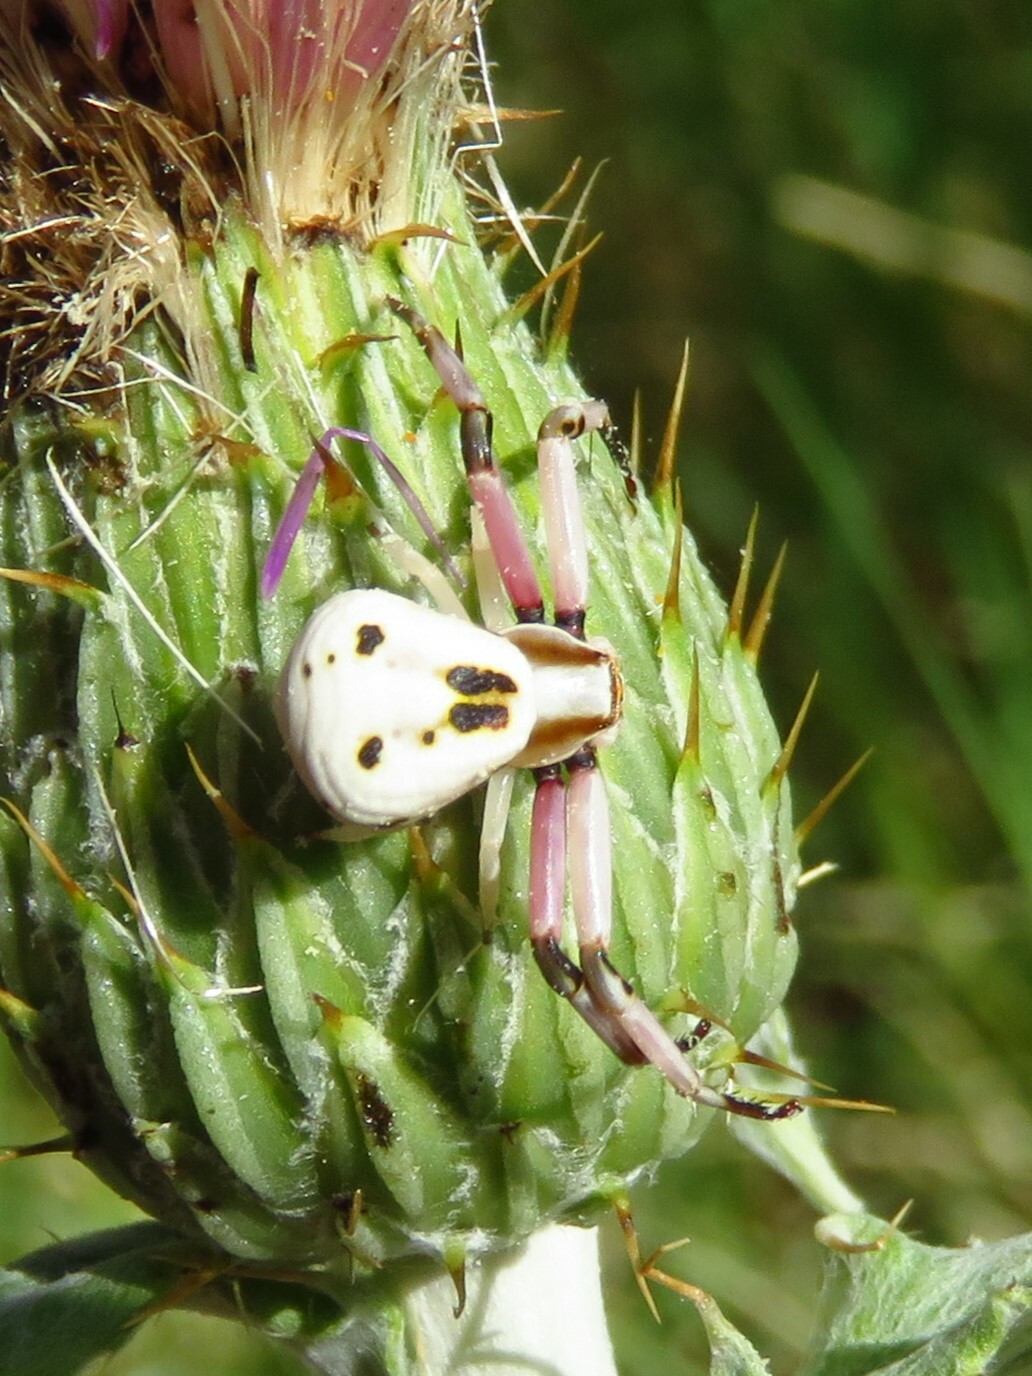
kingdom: Animalia
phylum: Arthropoda
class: Arachnida
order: Araneae
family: Thomisidae
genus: Misumenoides
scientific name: Misumenoides formosipes
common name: White-banded crab spider
